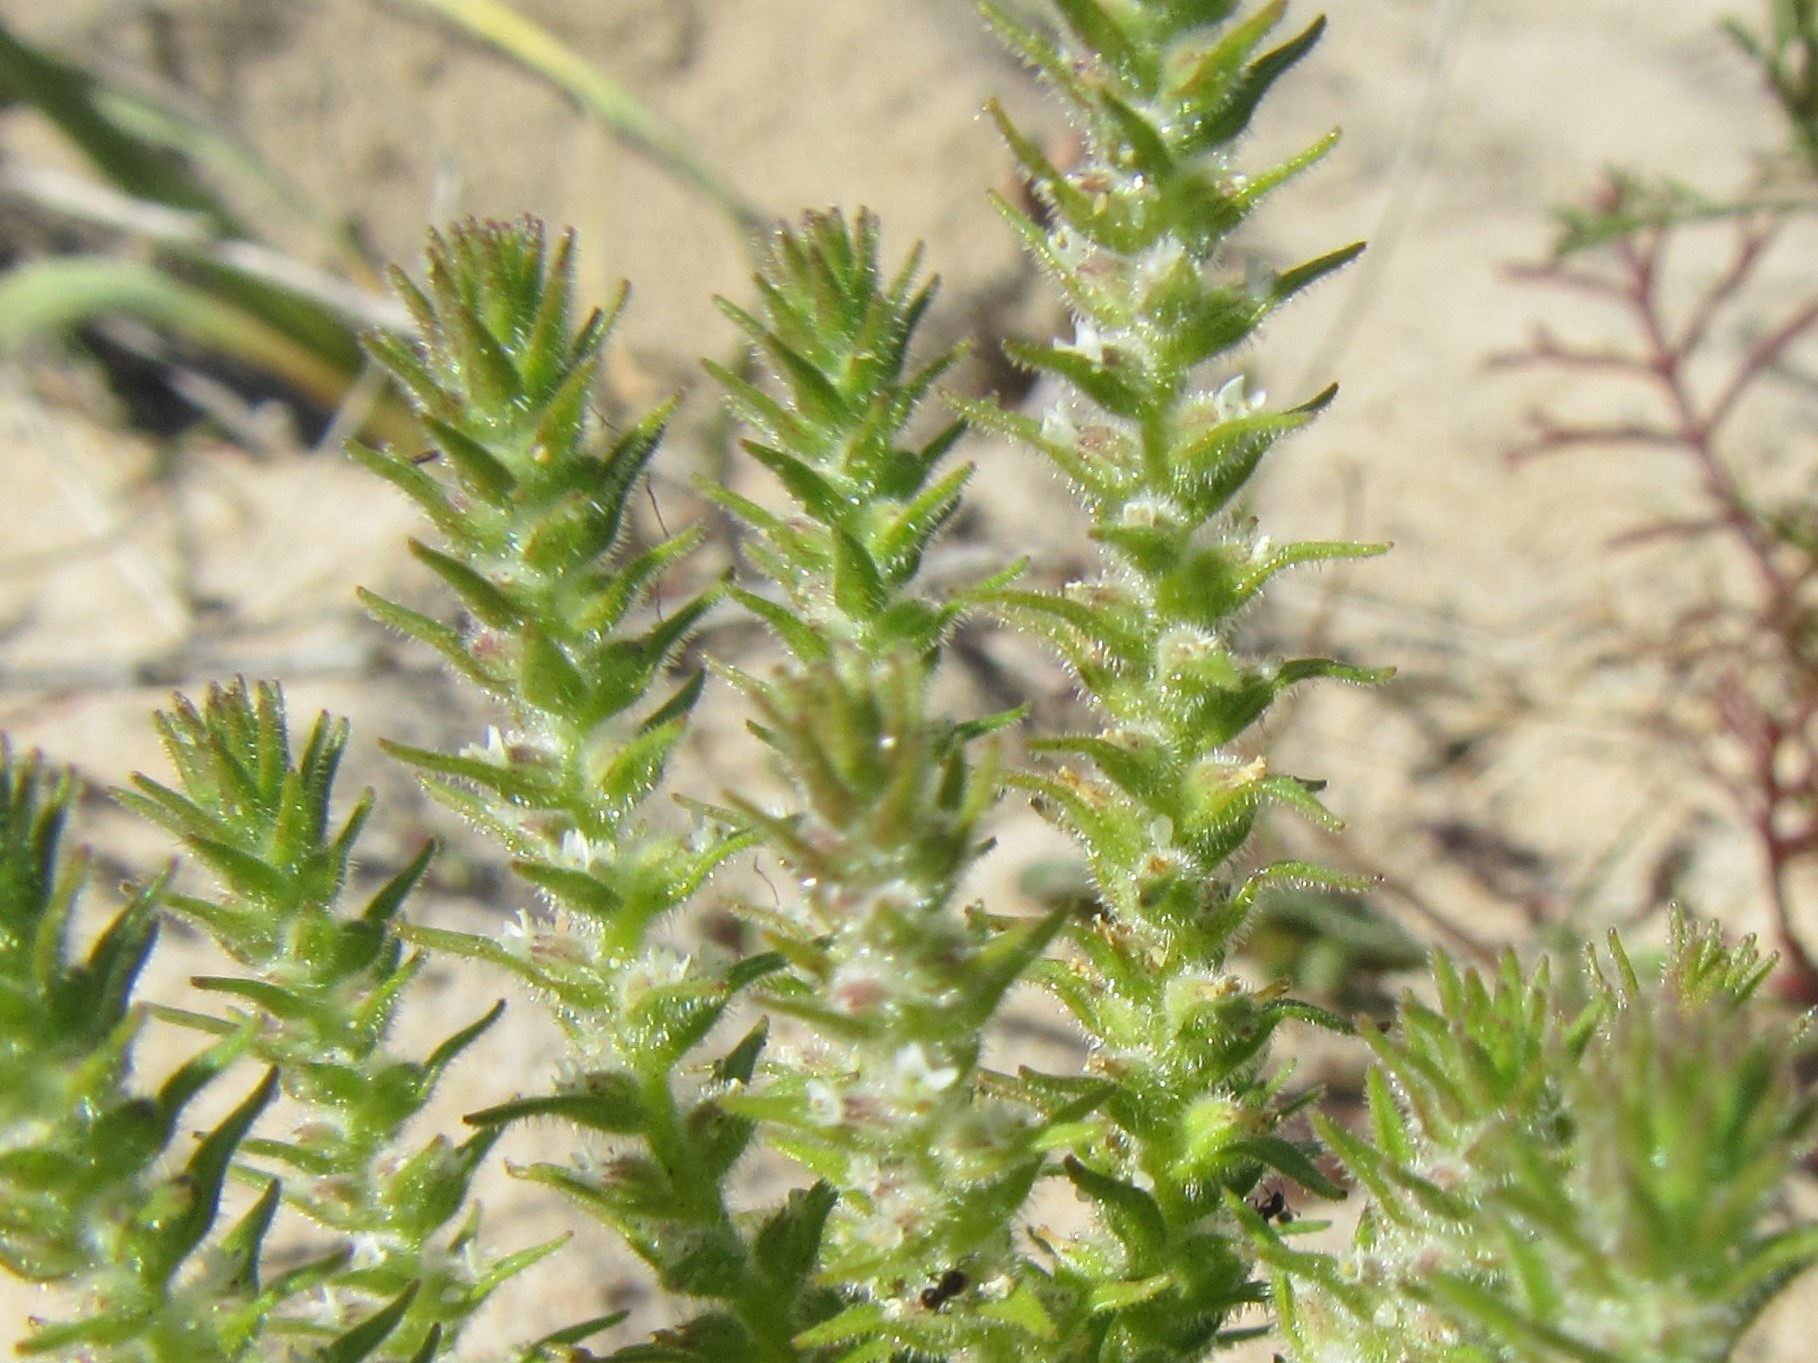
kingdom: Plantae
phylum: Tracheophyta
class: Magnoliopsida
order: Lamiales
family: Scrophulariaceae
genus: Chenopodiopsis
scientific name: Chenopodiopsis hirta
